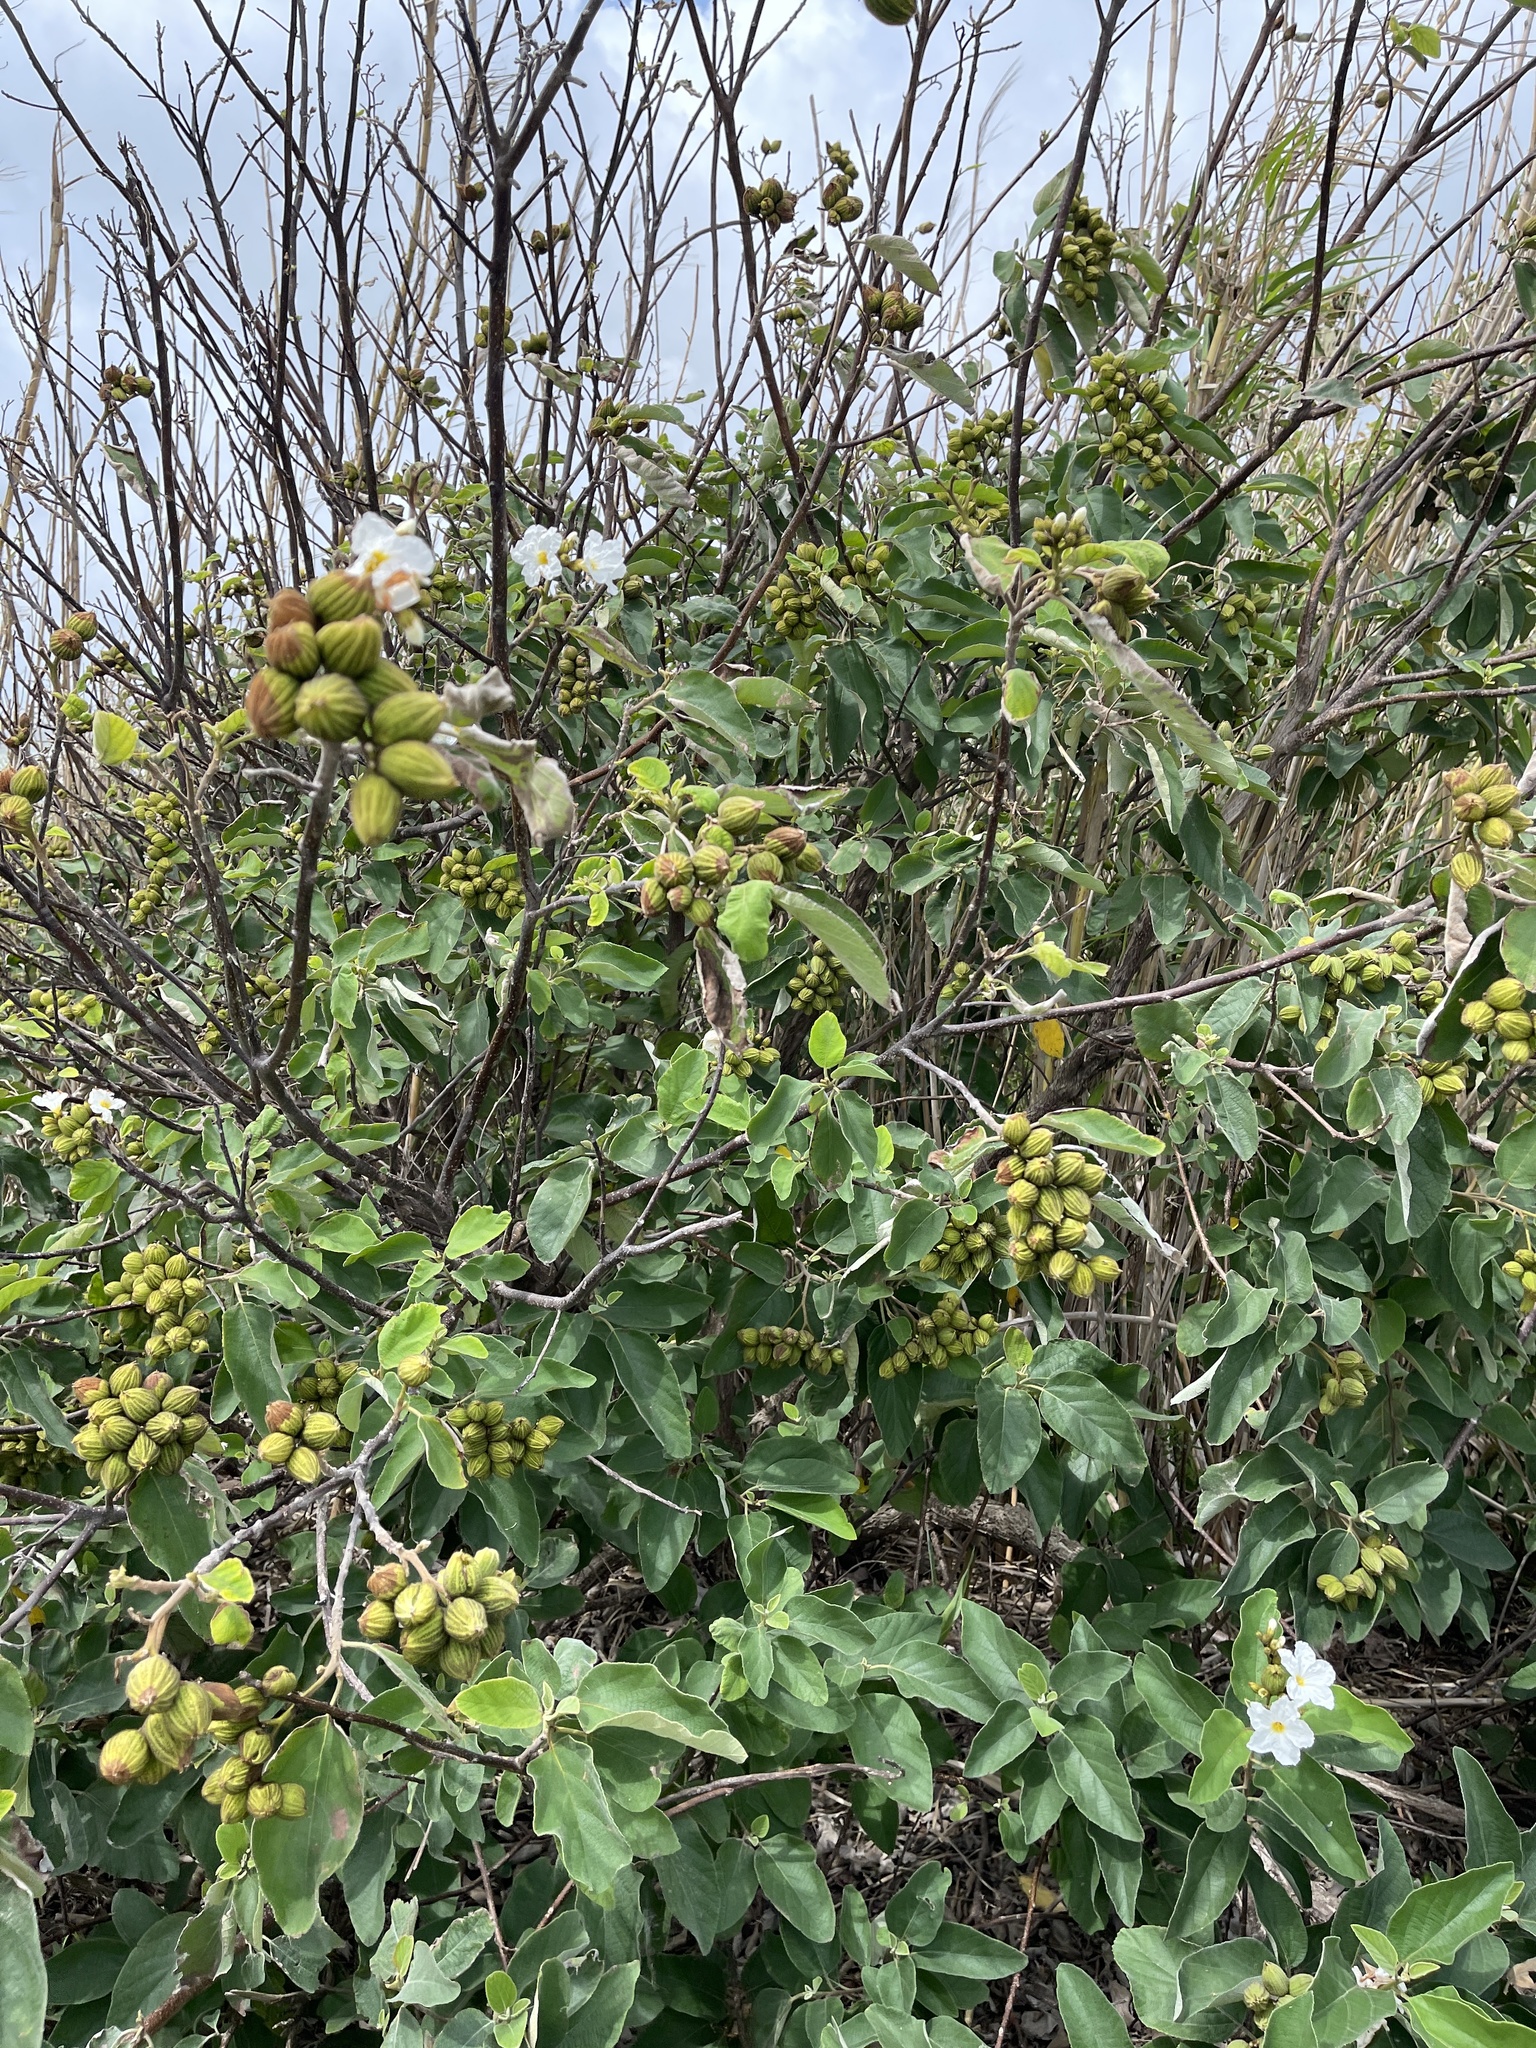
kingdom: Plantae
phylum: Tracheophyta
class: Magnoliopsida
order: Boraginales
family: Cordiaceae
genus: Cordia
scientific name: Cordia boissieri
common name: Mexican-olive
